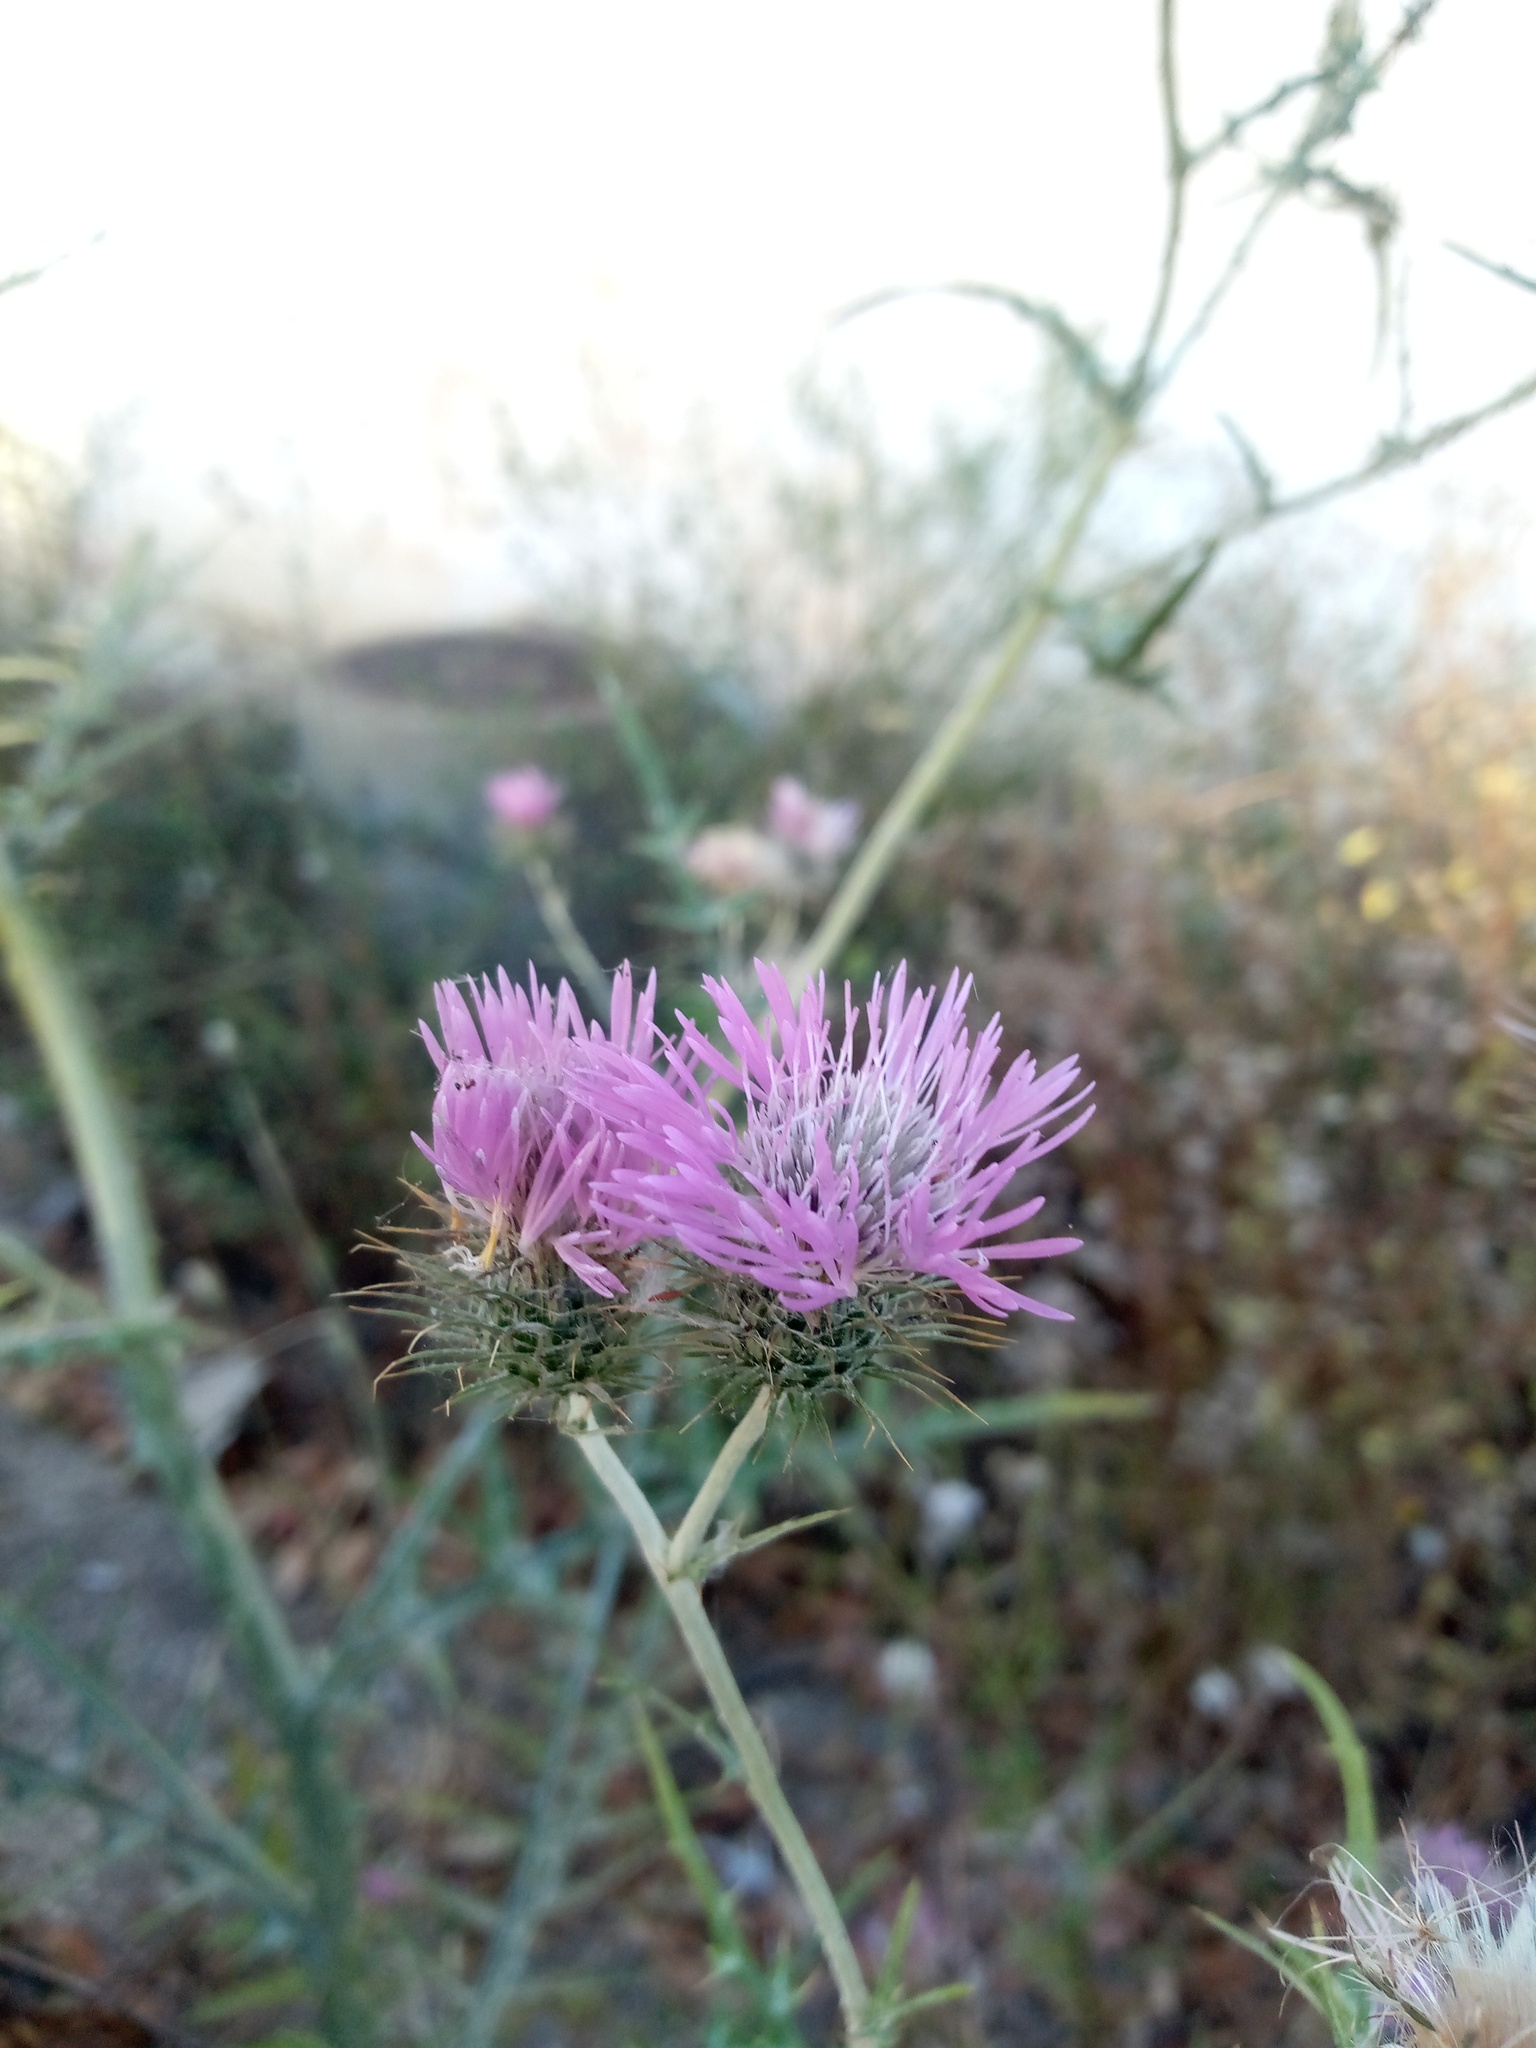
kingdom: Plantae
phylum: Tracheophyta
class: Magnoliopsida
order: Asterales
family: Asteraceae
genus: Galactites
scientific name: Galactites tomentosa
